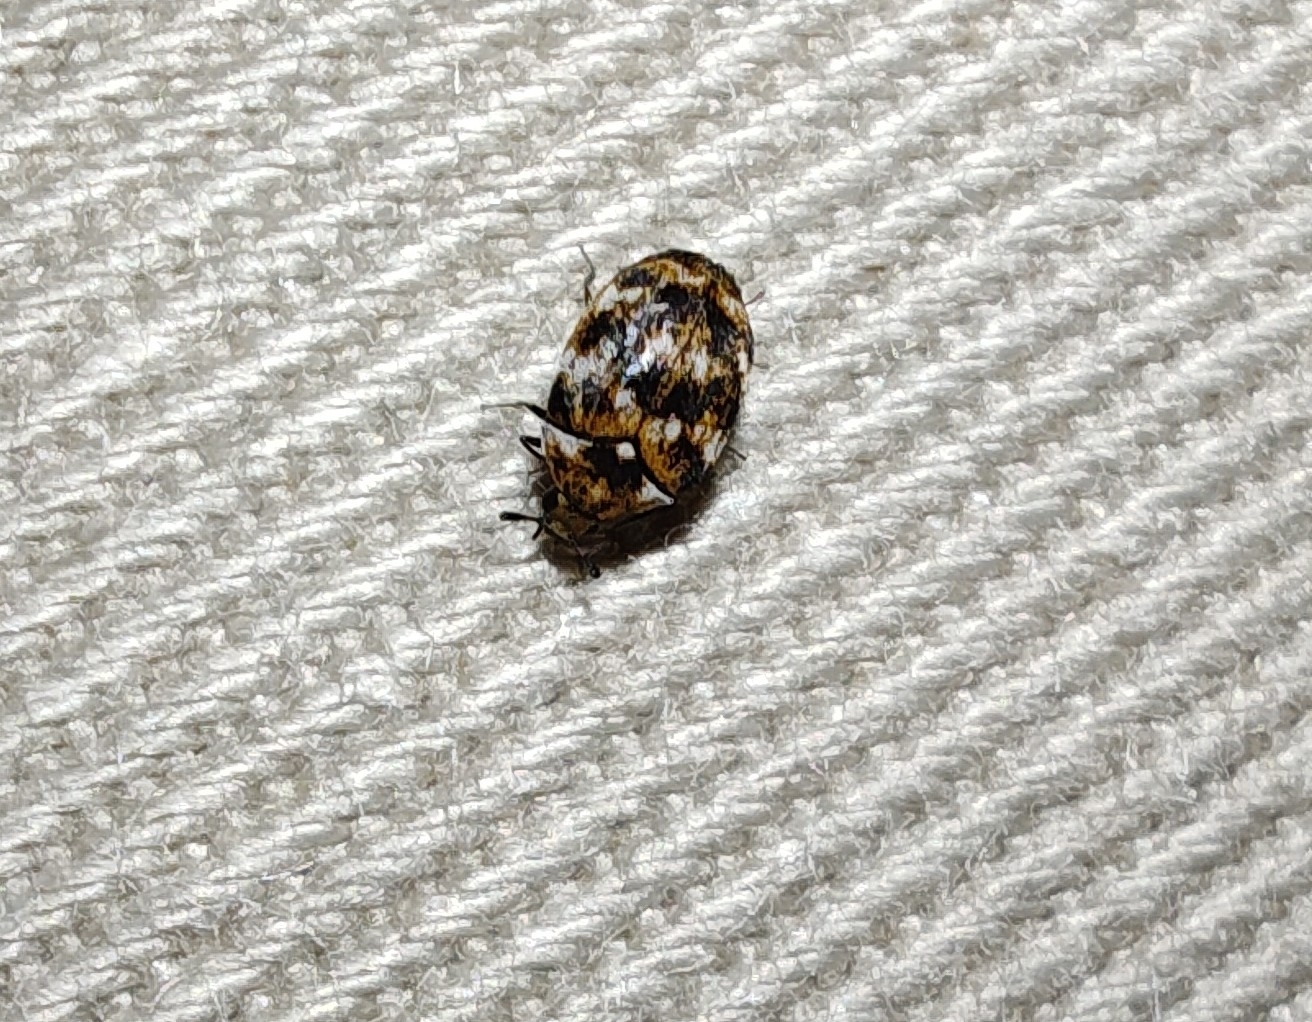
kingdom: Animalia
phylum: Arthropoda
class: Insecta
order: Coleoptera
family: Dermestidae
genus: Anthrenus
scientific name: Anthrenus verbasci
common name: Varied carpet beetle
